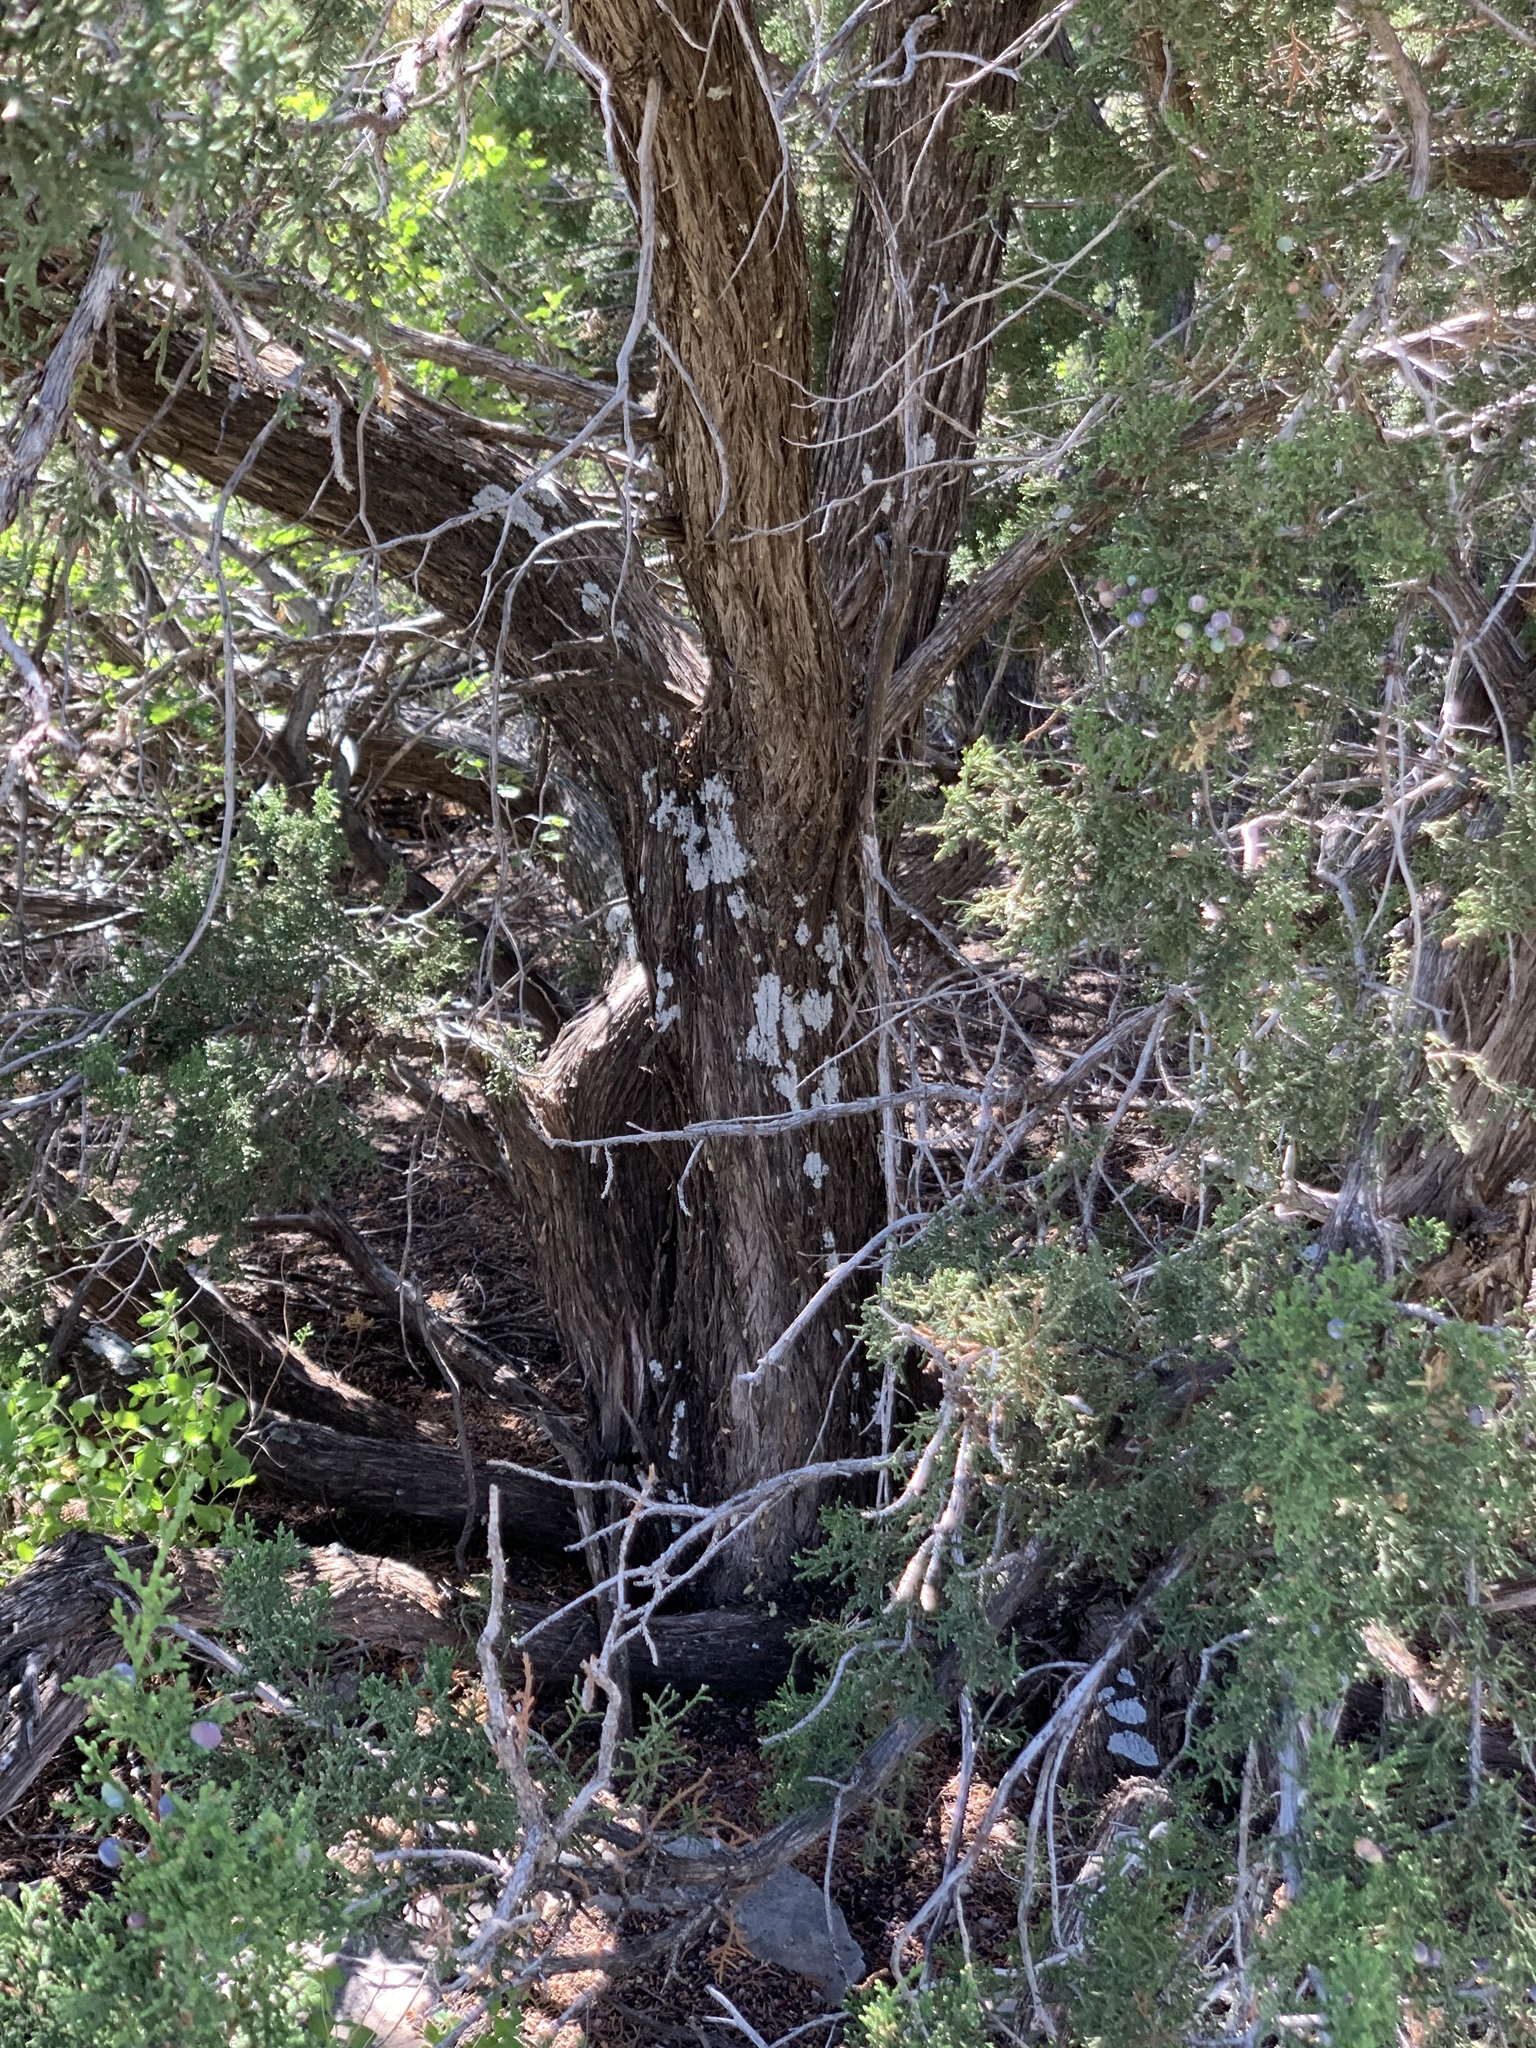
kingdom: Plantae
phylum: Tracheophyta
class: Pinopsida
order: Pinales
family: Cupressaceae
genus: Juniperus
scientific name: Juniperus monosperma
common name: One-seed juniper
